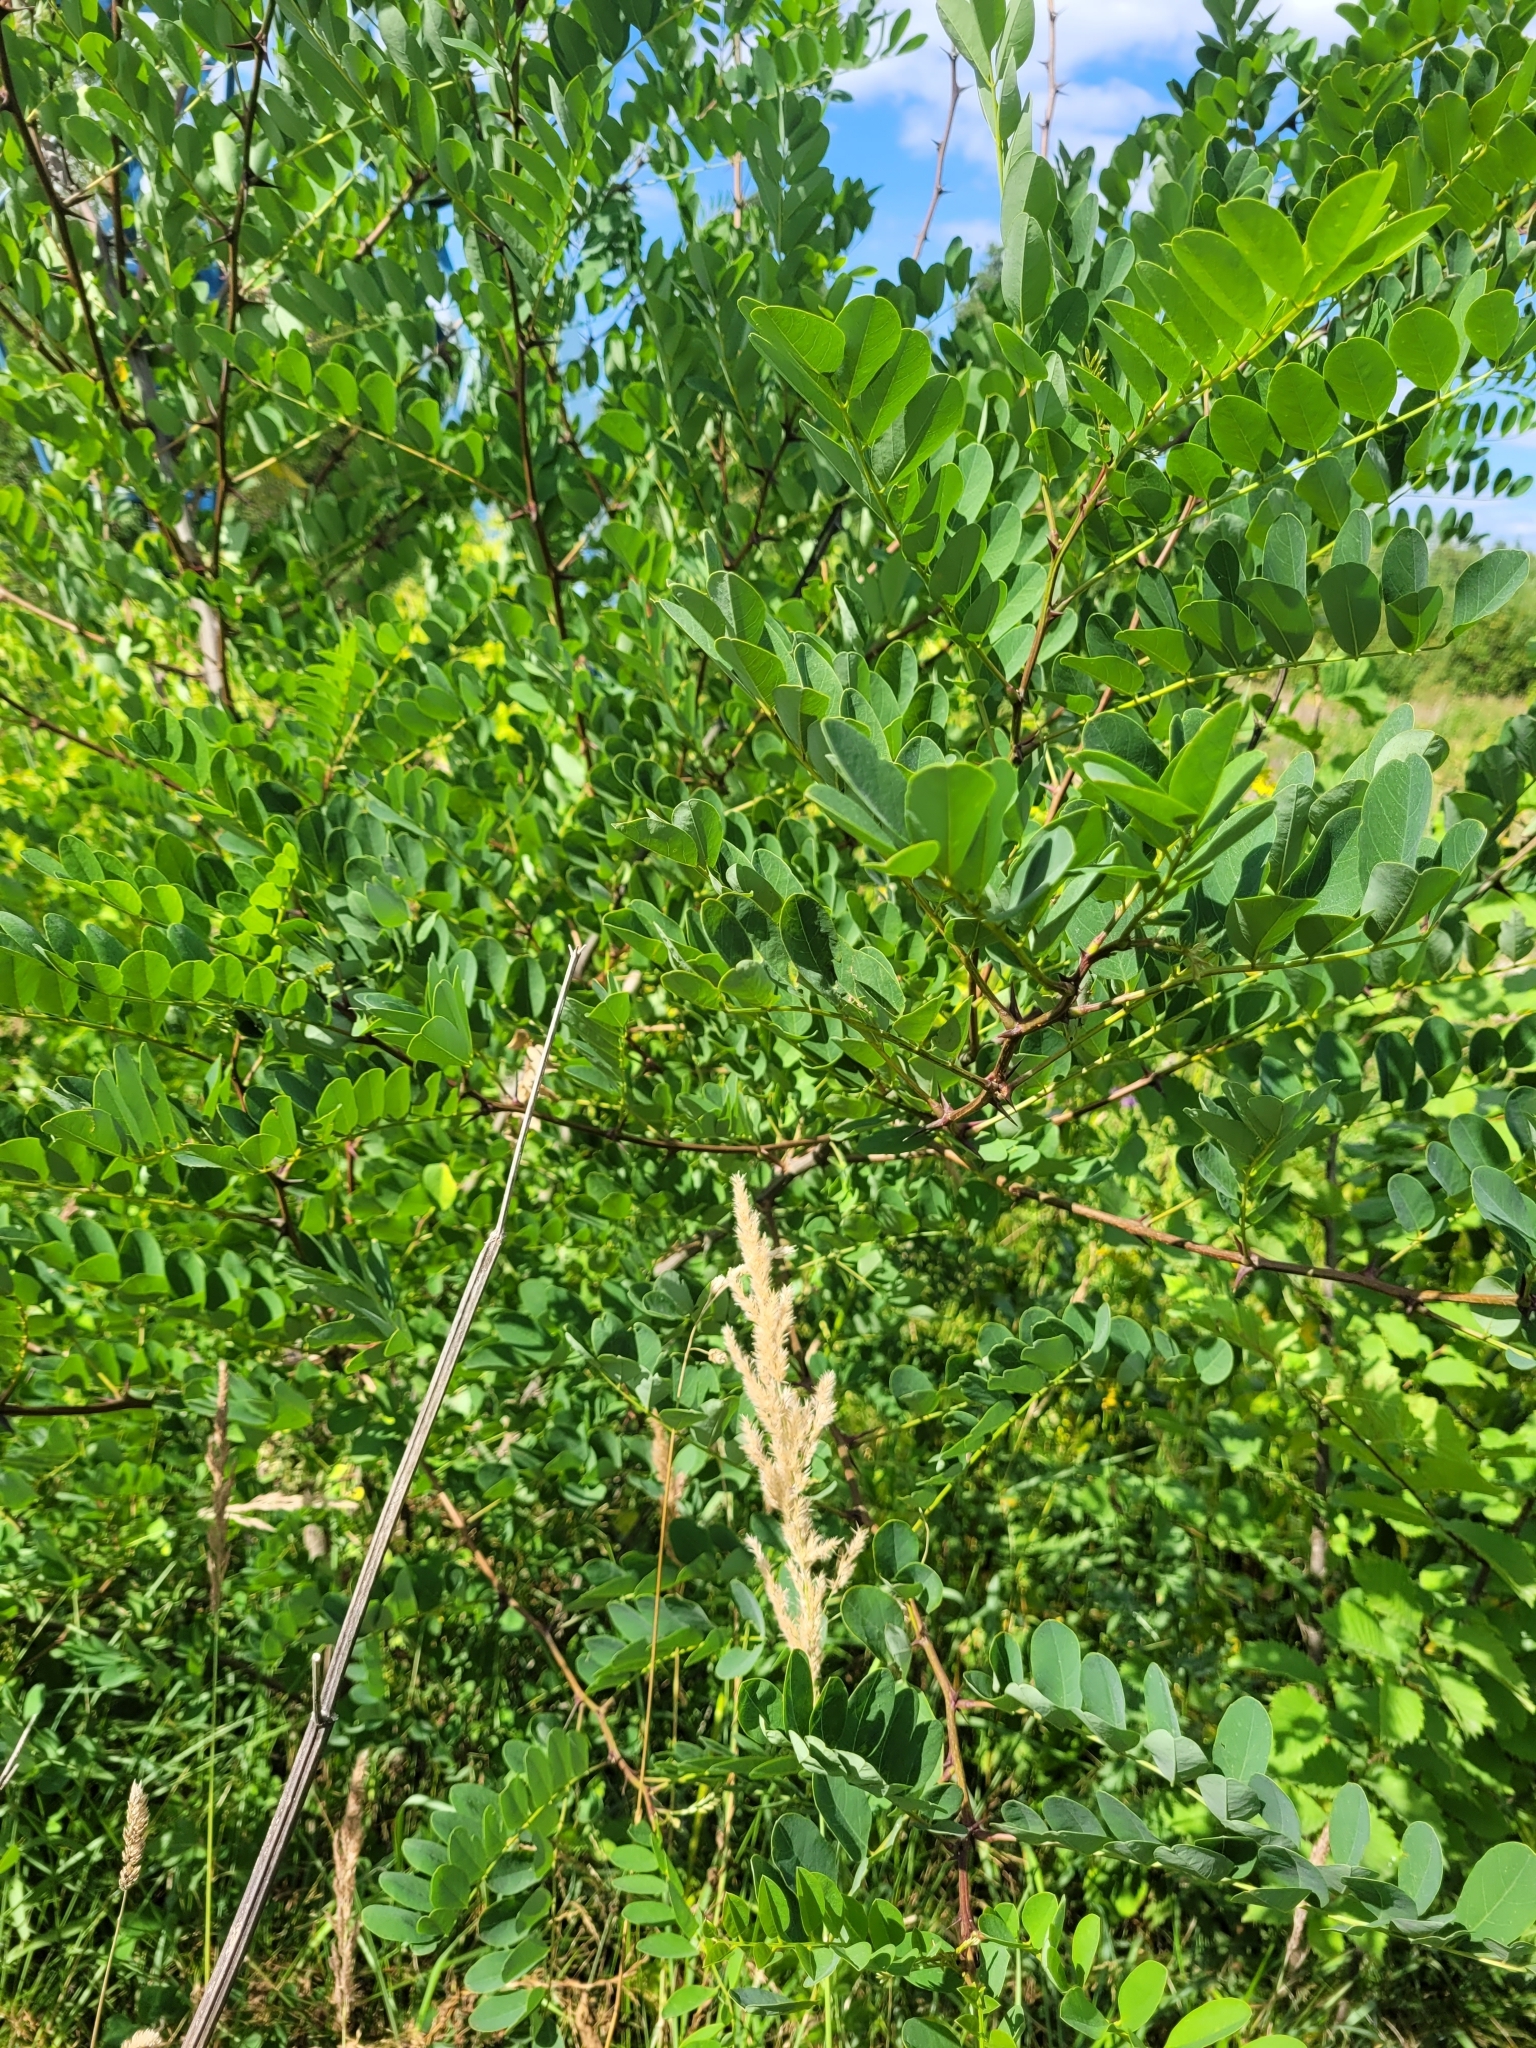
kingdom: Plantae
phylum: Tracheophyta
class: Magnoliopsida
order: Fabales
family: Fabaceae
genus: Robinia
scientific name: Robinia pseudoacacia
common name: Black locust
